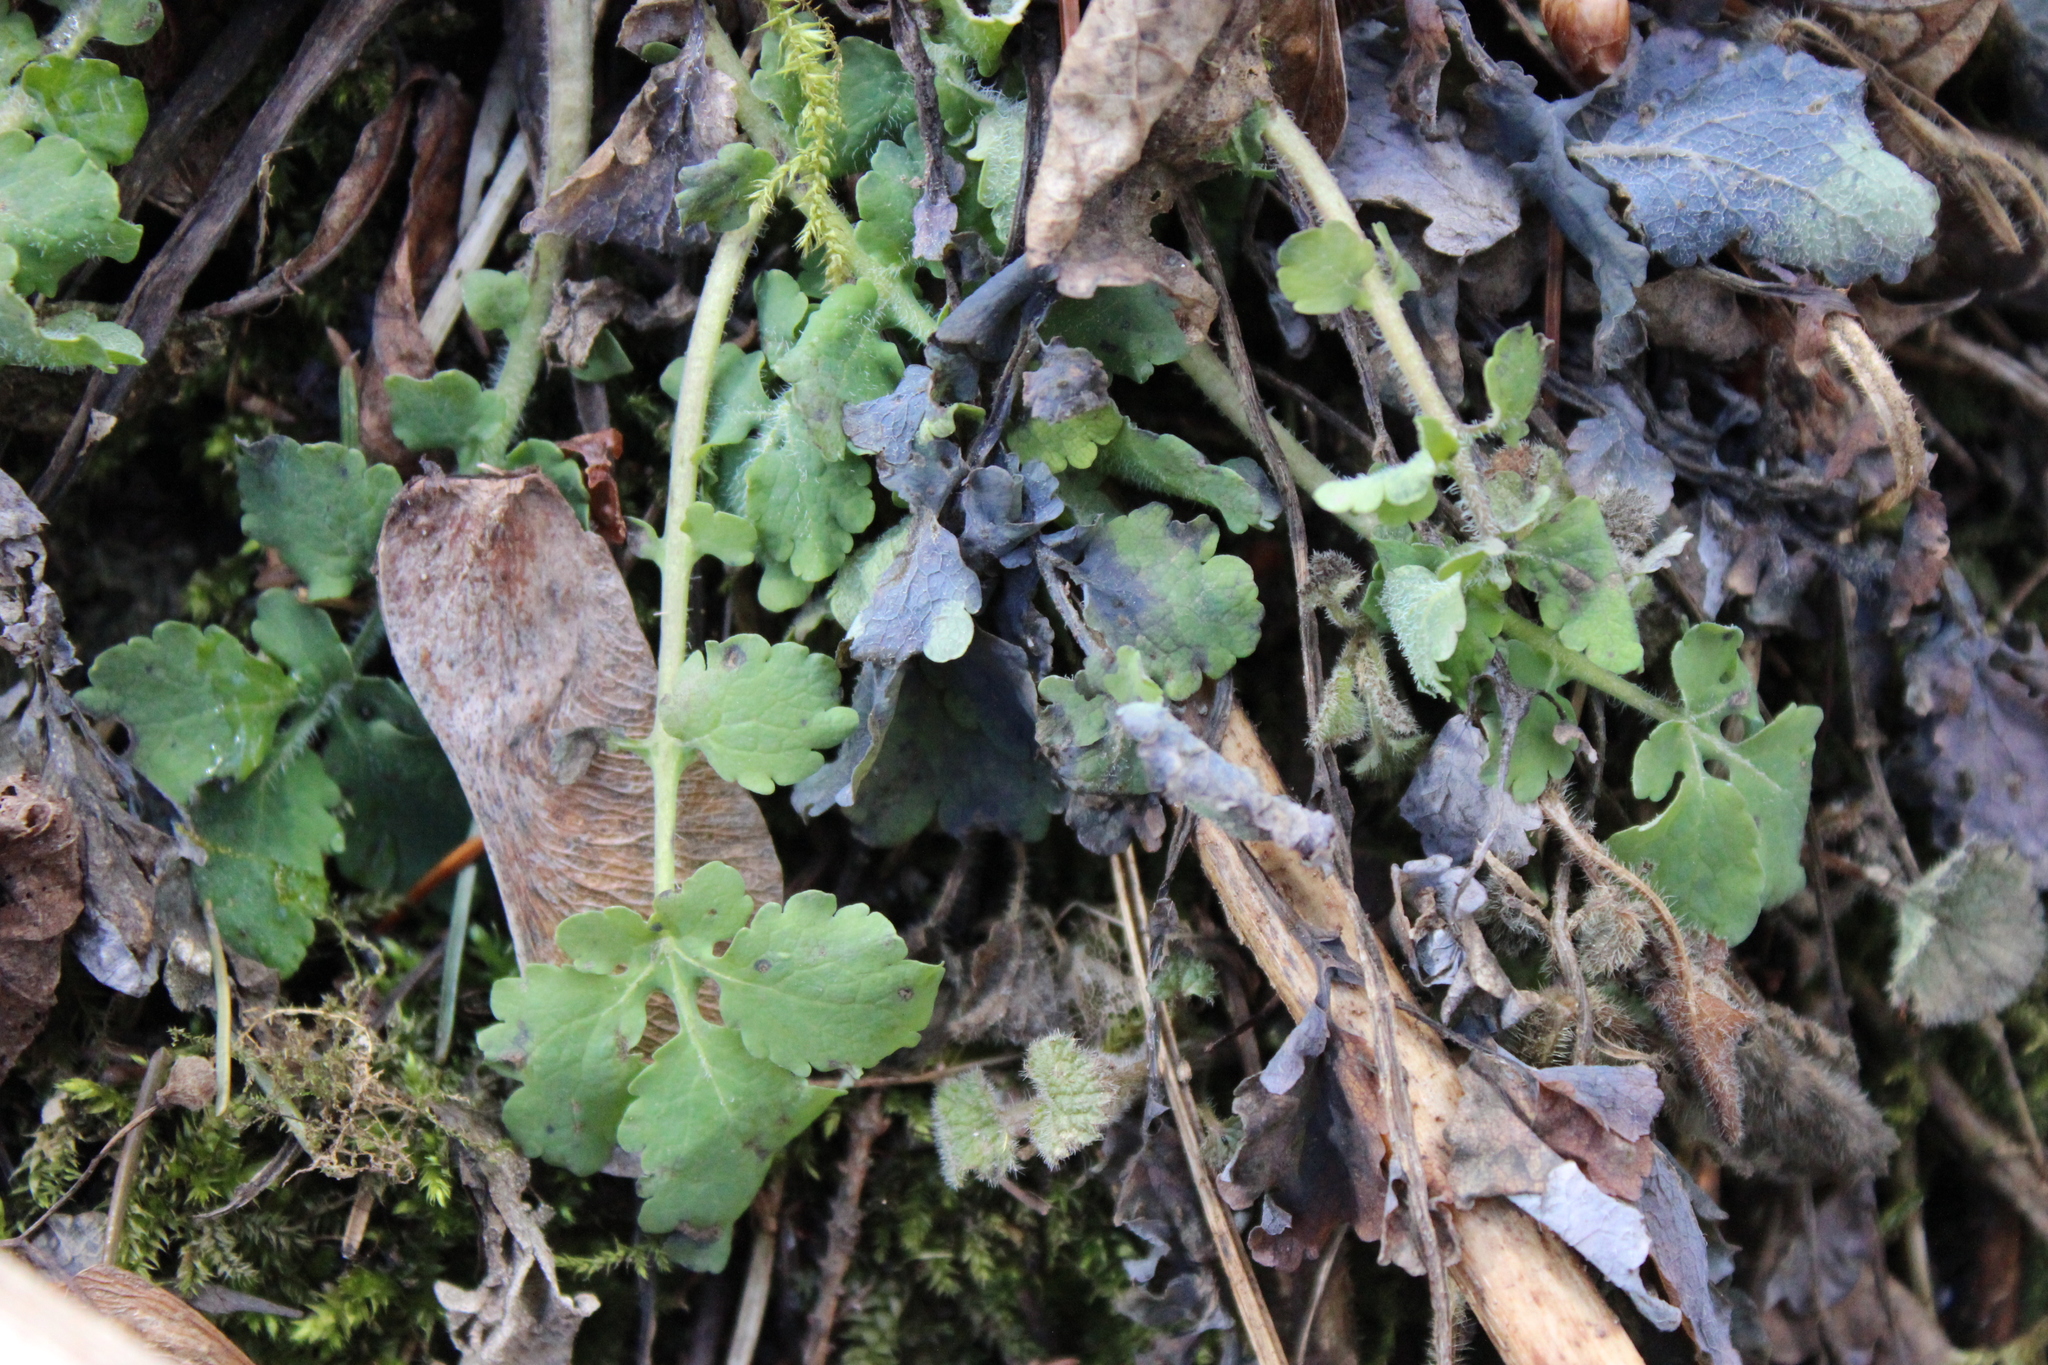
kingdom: Plantae
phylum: Tracheophyta
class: Magnoliopsida
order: Ranunculales
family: Papaveraceae
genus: Chelidonium
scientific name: Chelidonium majus
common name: Greater celandine
